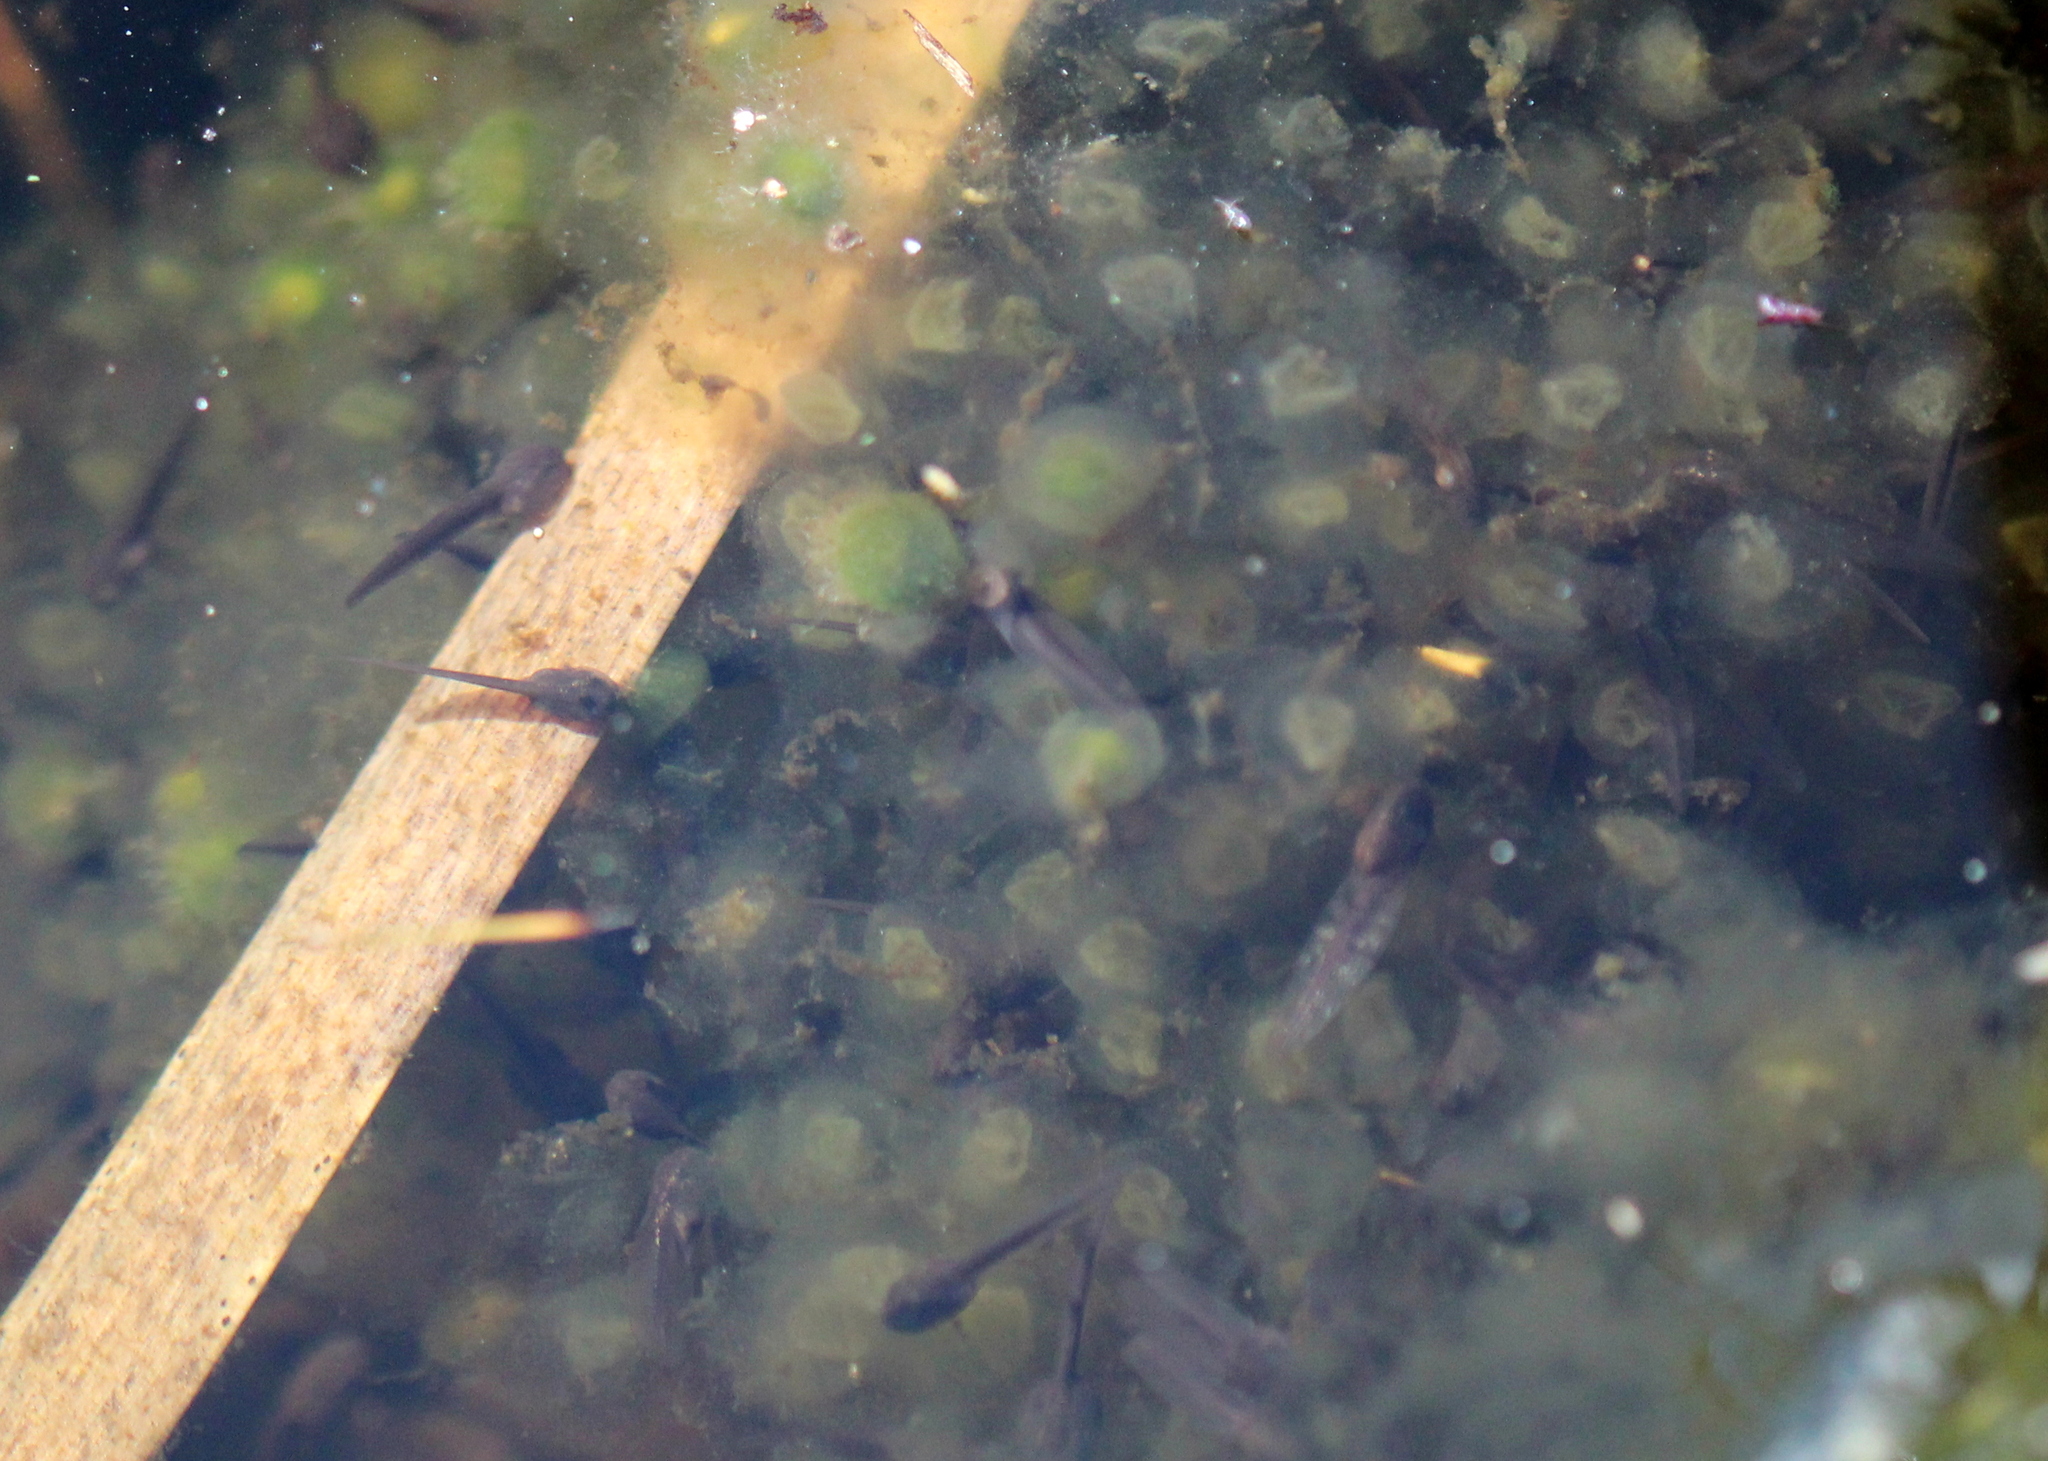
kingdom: Animalia
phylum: Chordata
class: Amphibia
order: Anura
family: Ranidae
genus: Lithobates
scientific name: Lithobates sylvaticus
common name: Wood frog
